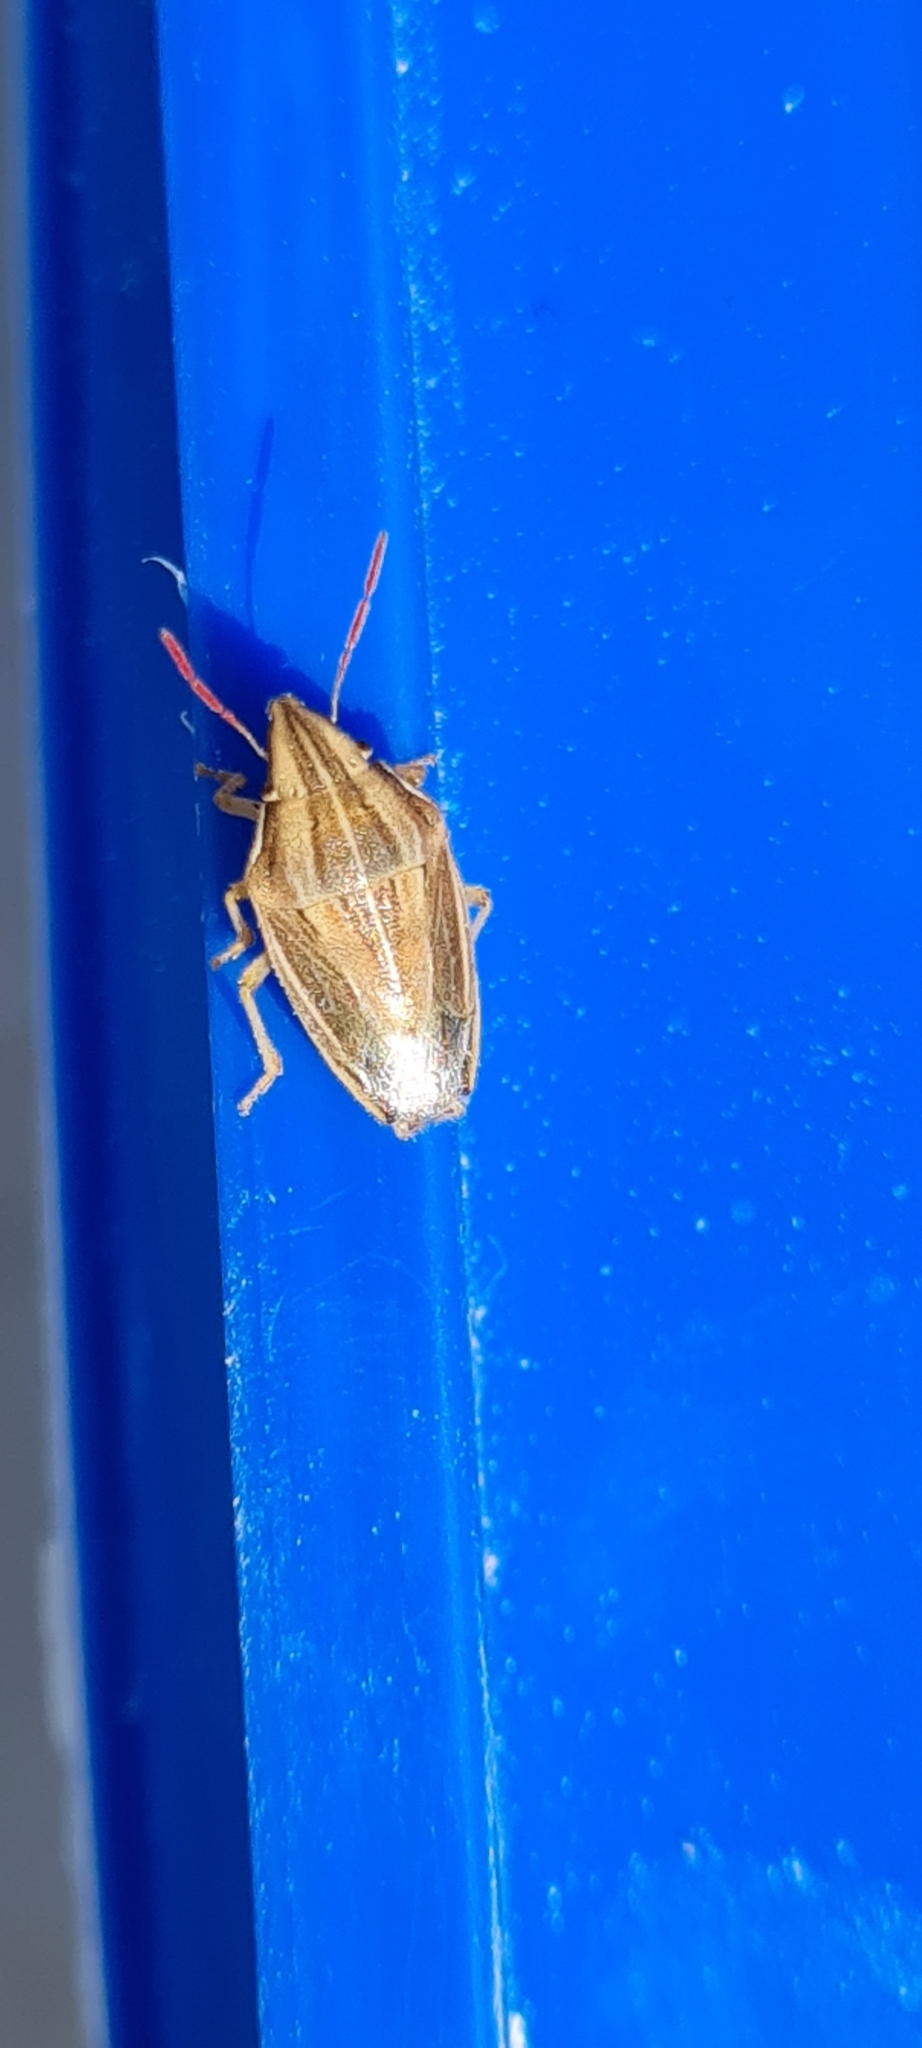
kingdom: Animalia
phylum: Arthropoda
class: Insecta
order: Hemiptera
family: Pentatomidae
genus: Aelia
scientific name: Aelia acuminata
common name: Bishop's mitre
